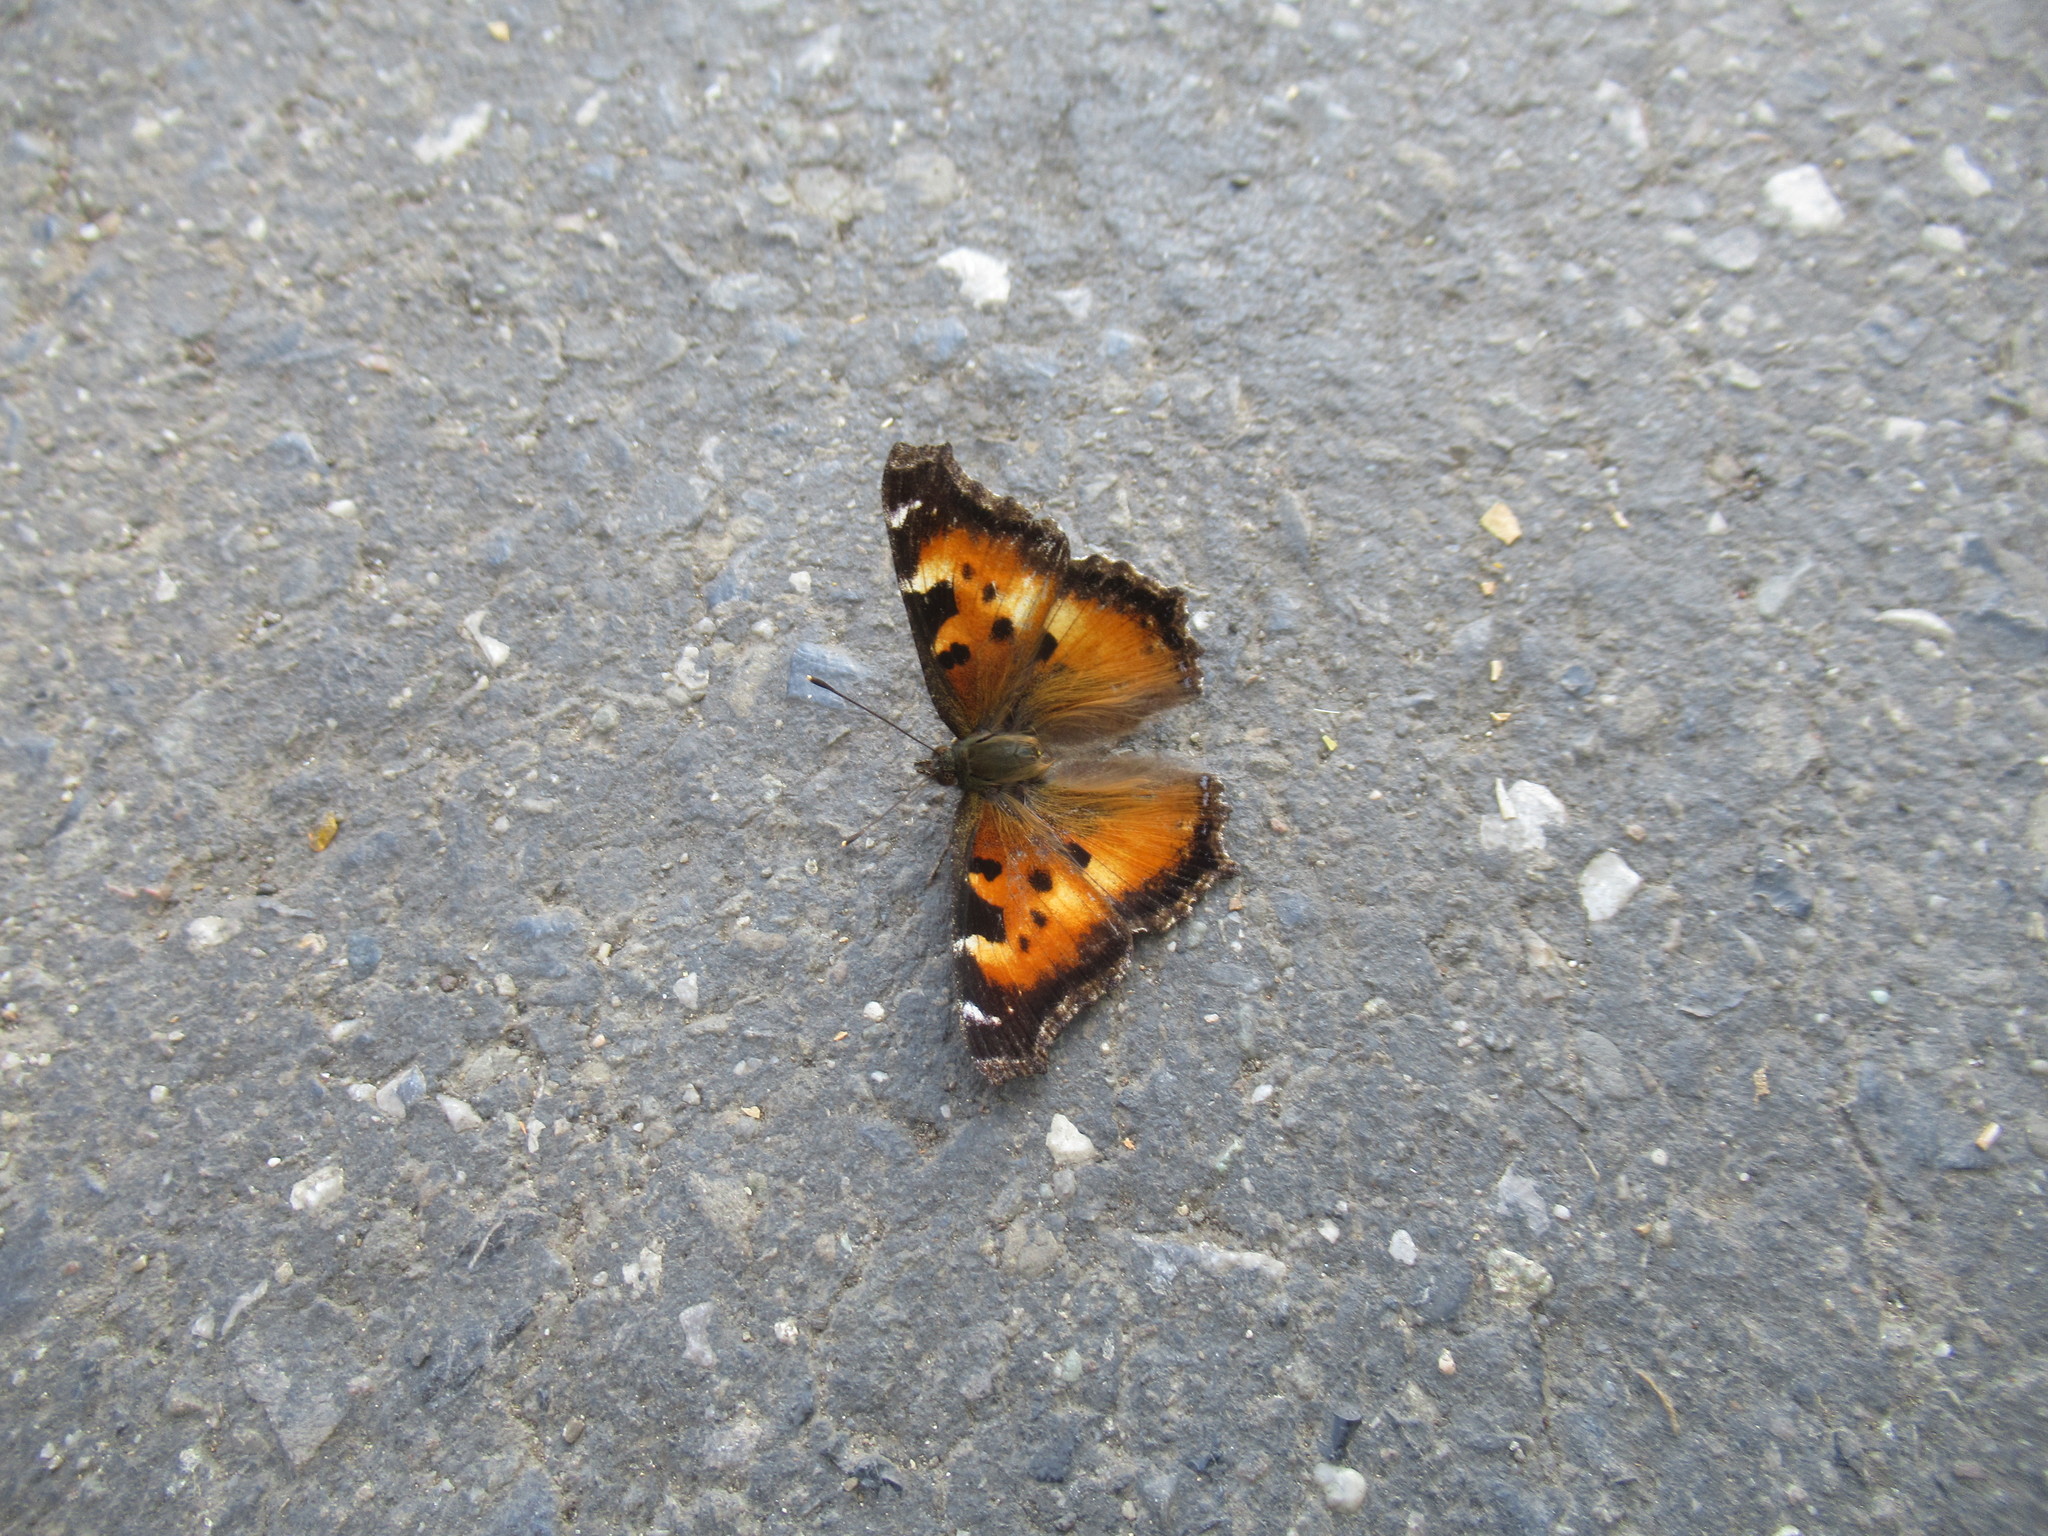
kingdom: Animalia
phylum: Arthropoda
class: Insecta
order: Lepidoptera
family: Nymphalidae
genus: Nymphalis
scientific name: Nymphalis californica
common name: California tortoiseshell
